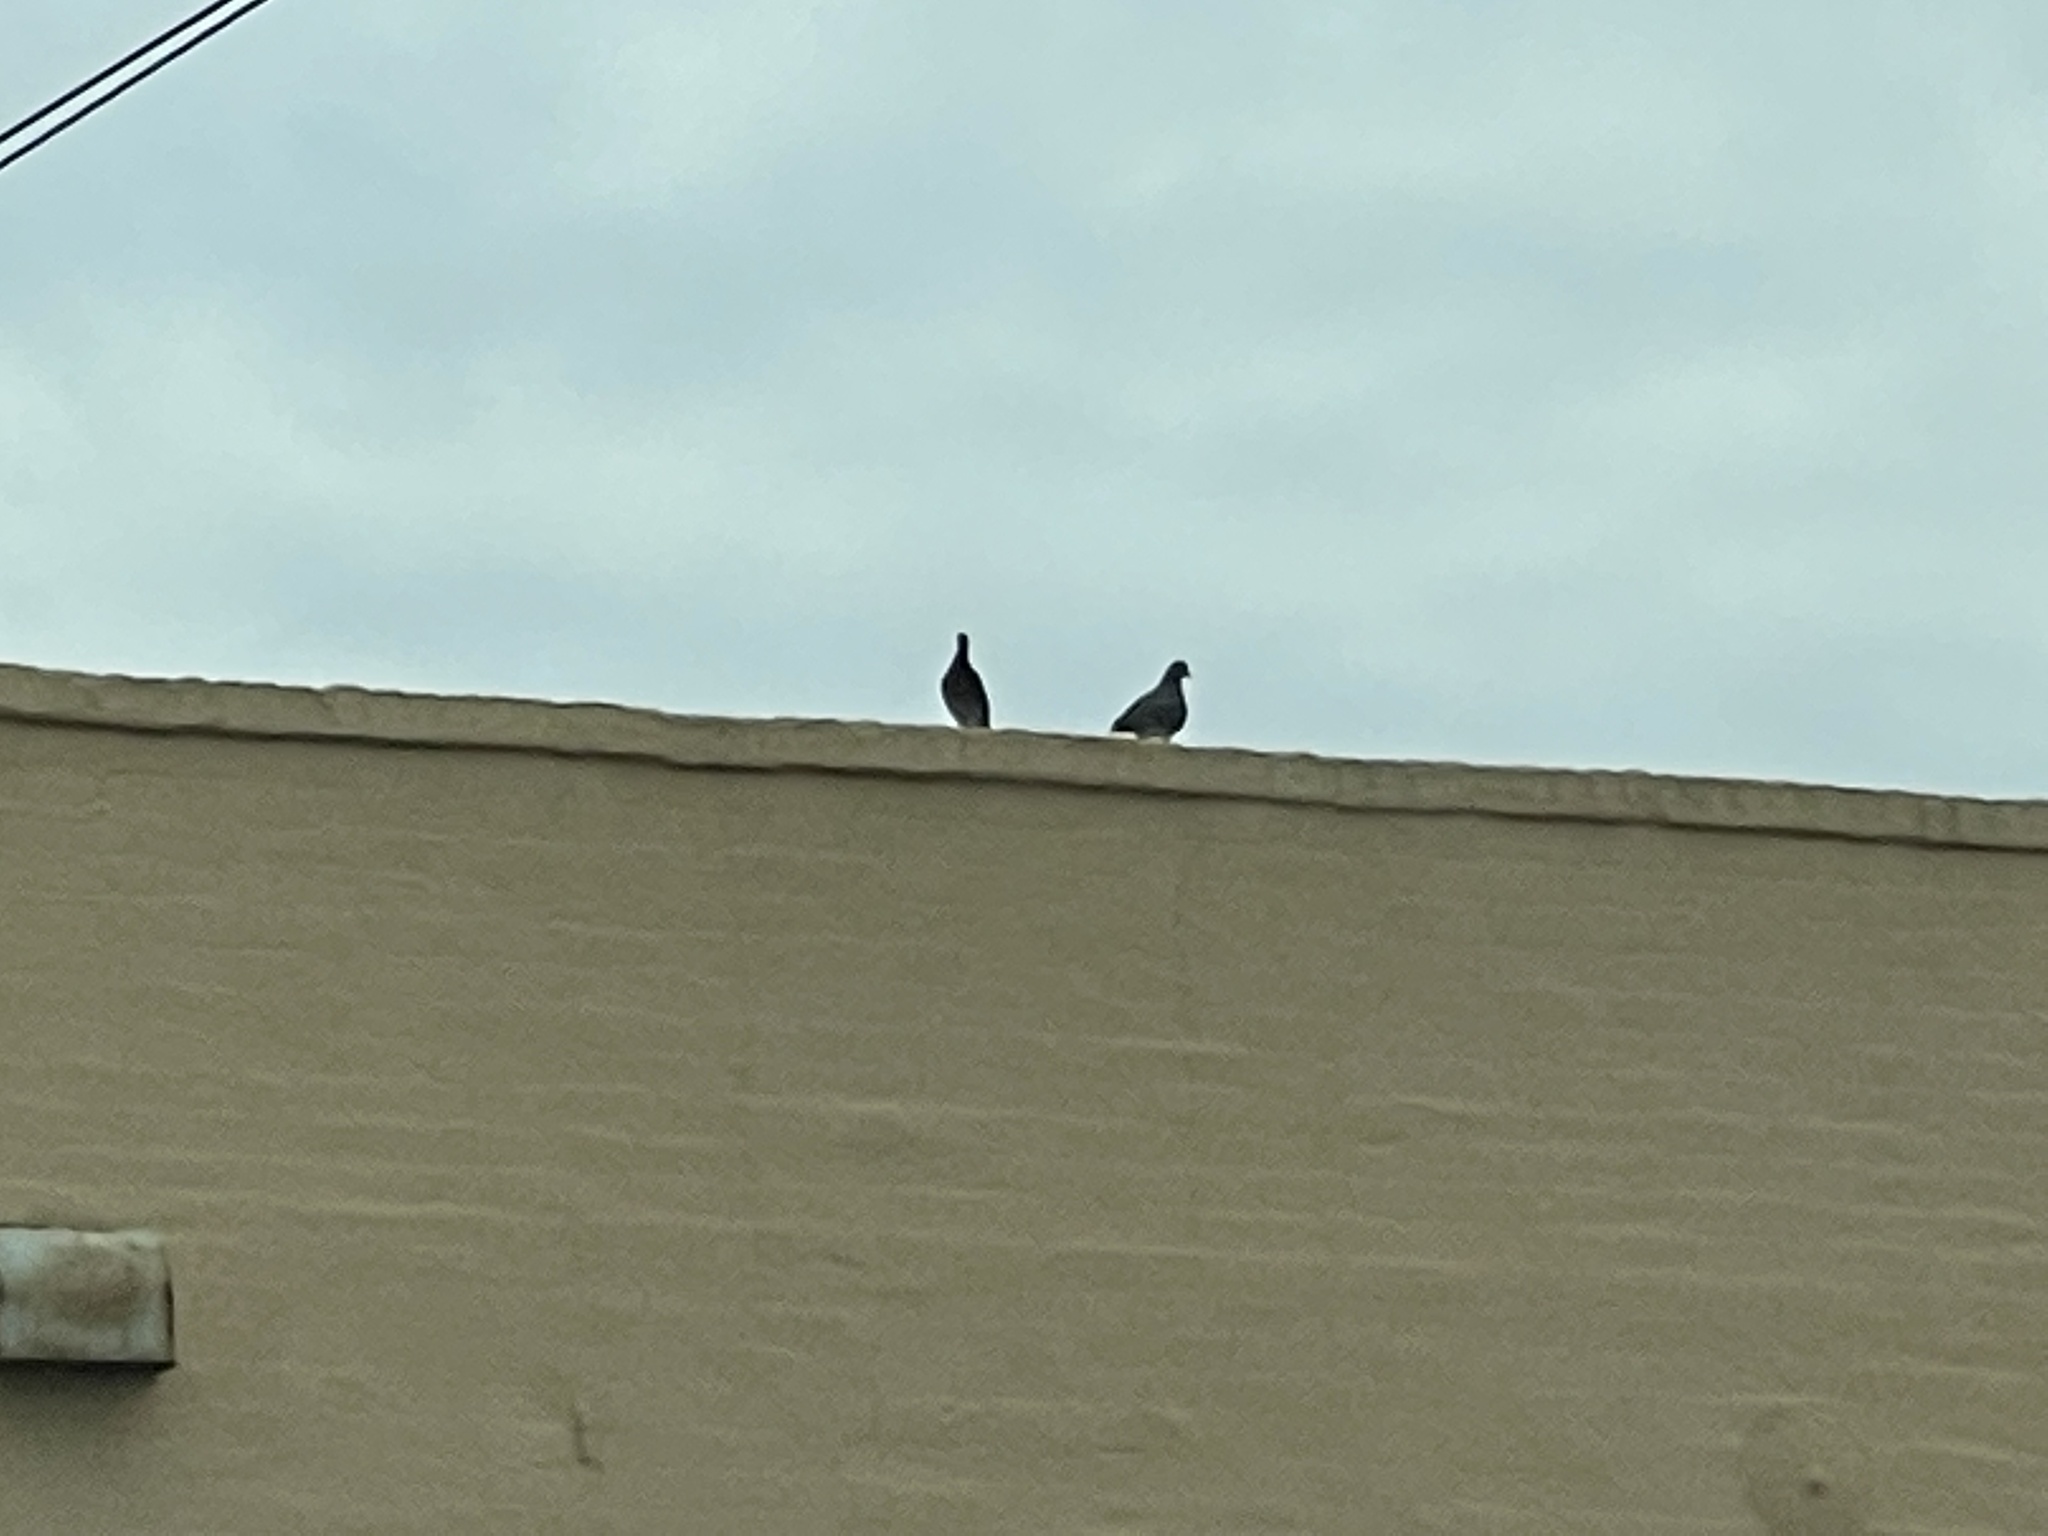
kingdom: Animalia
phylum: Chordata
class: Aves
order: Columbiformes
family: Columbidae
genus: Columba
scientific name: Columba livia
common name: Rock pigeon
